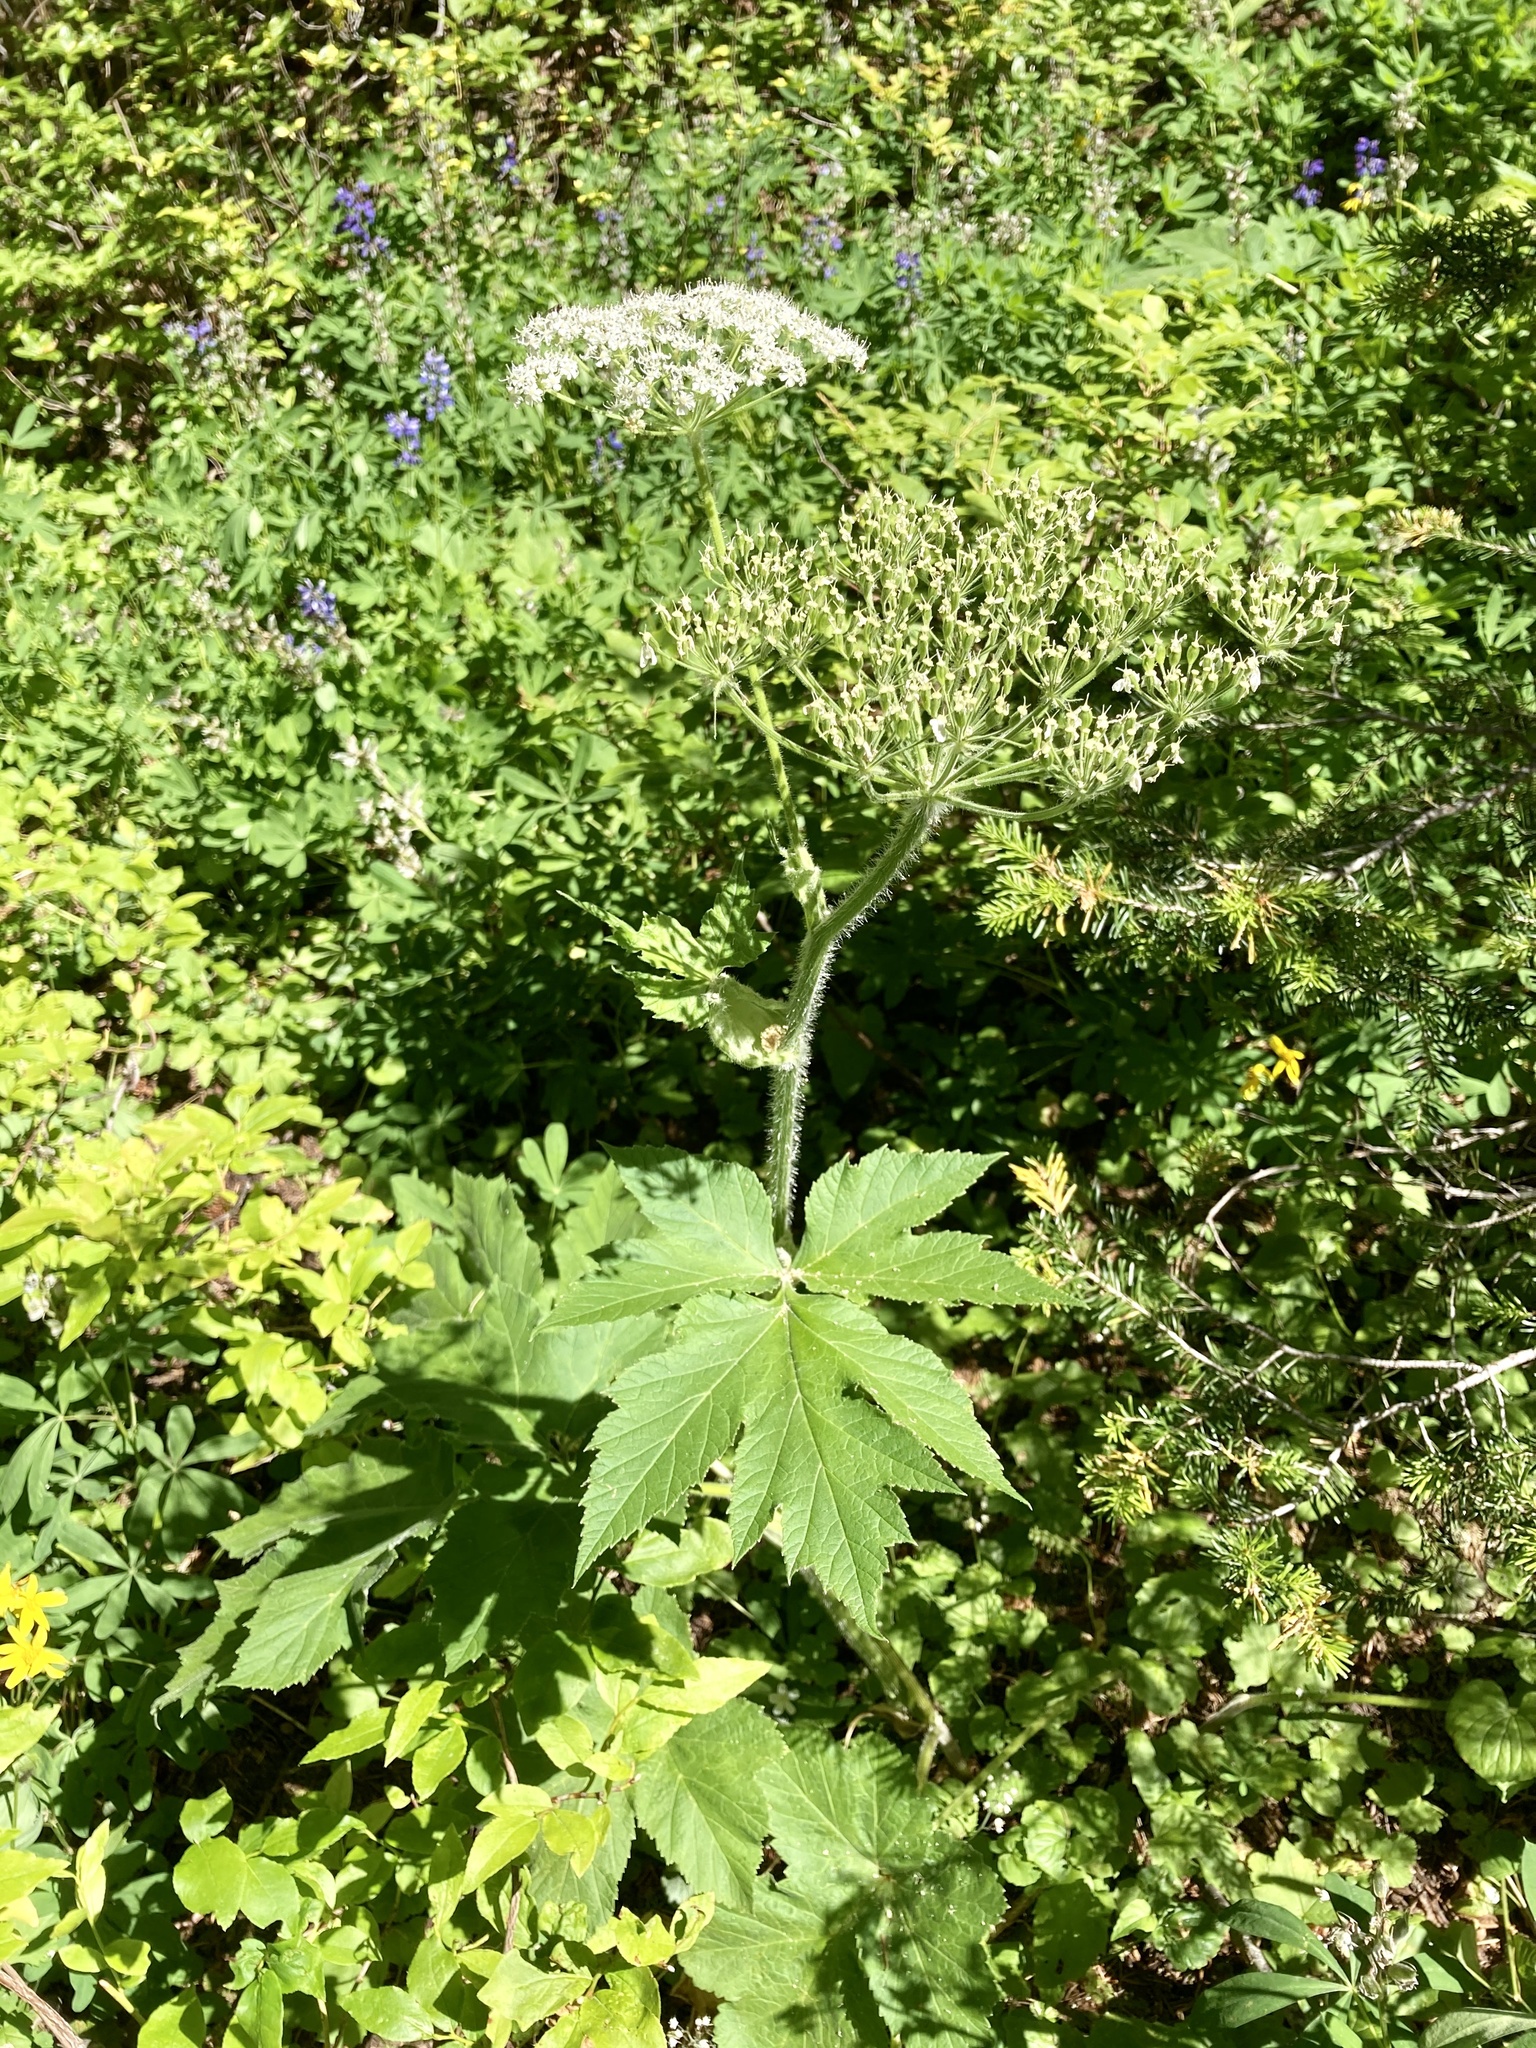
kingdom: Plantae
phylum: Tracheophyta
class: Magnoliopsida
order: Apiales
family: Apiaceae
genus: Heracleum
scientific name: Heracleum maximum
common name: American cow parsnip
